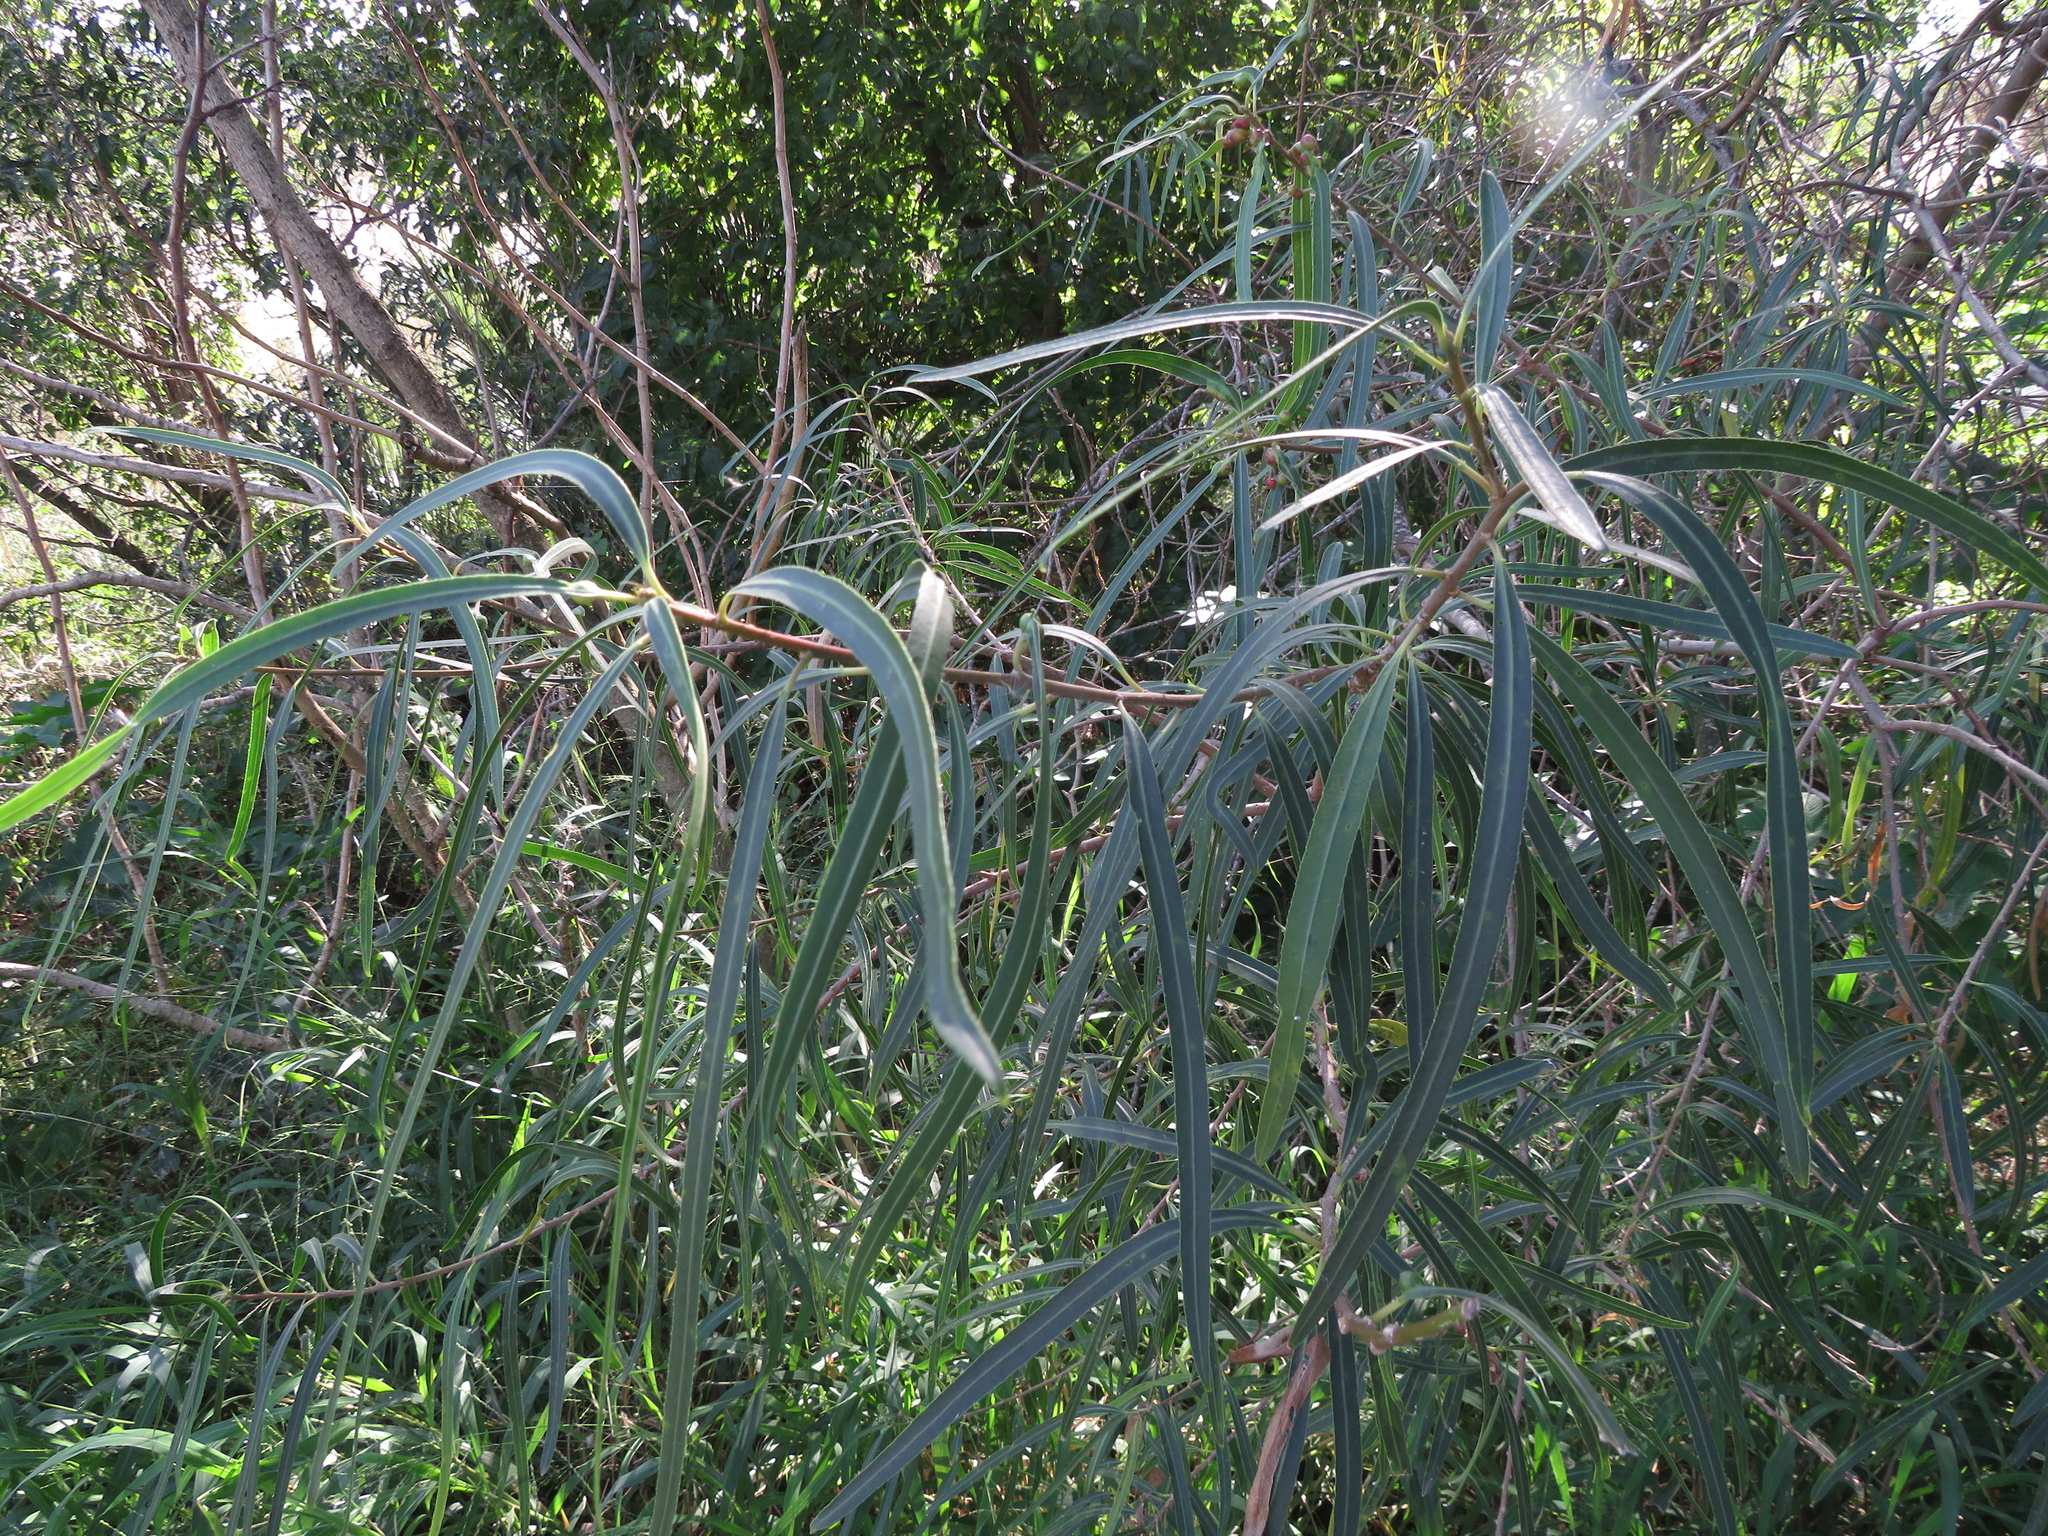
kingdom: Plantae
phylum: Tracheophyta
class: Magnoliopsida
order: Malpighiales
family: Euphorbiaceae
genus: Sapium
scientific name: Sapium haematospermum
